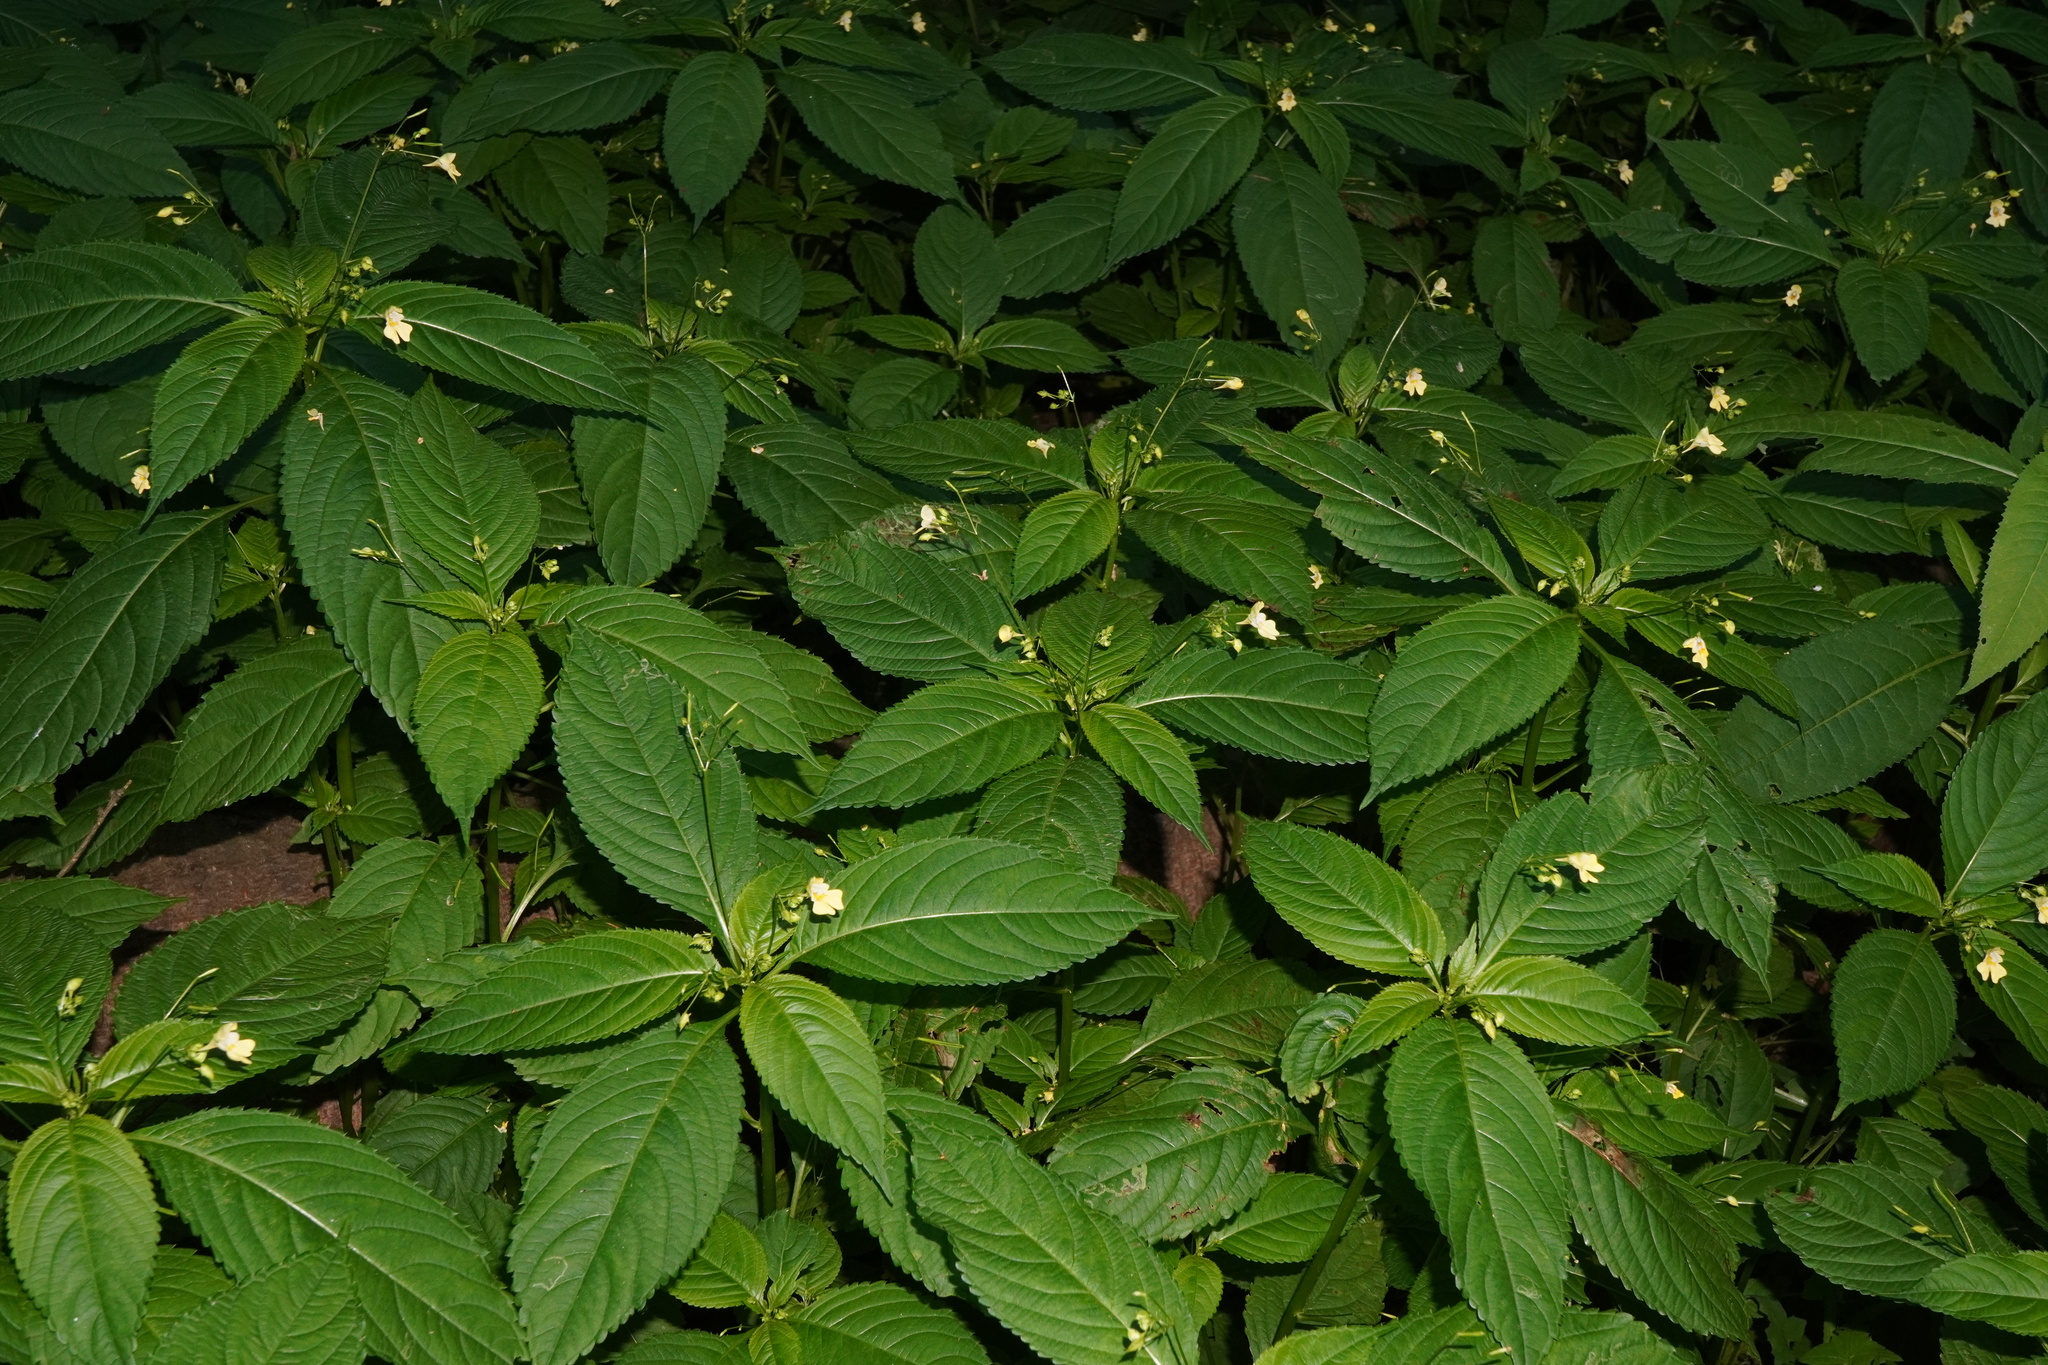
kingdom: Plantae
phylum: Tracheophyta
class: Magnoliopsida
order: Ericales
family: Balsaminaceae
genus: Impatiens
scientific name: Impatiens parviflora
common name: Small balsam
